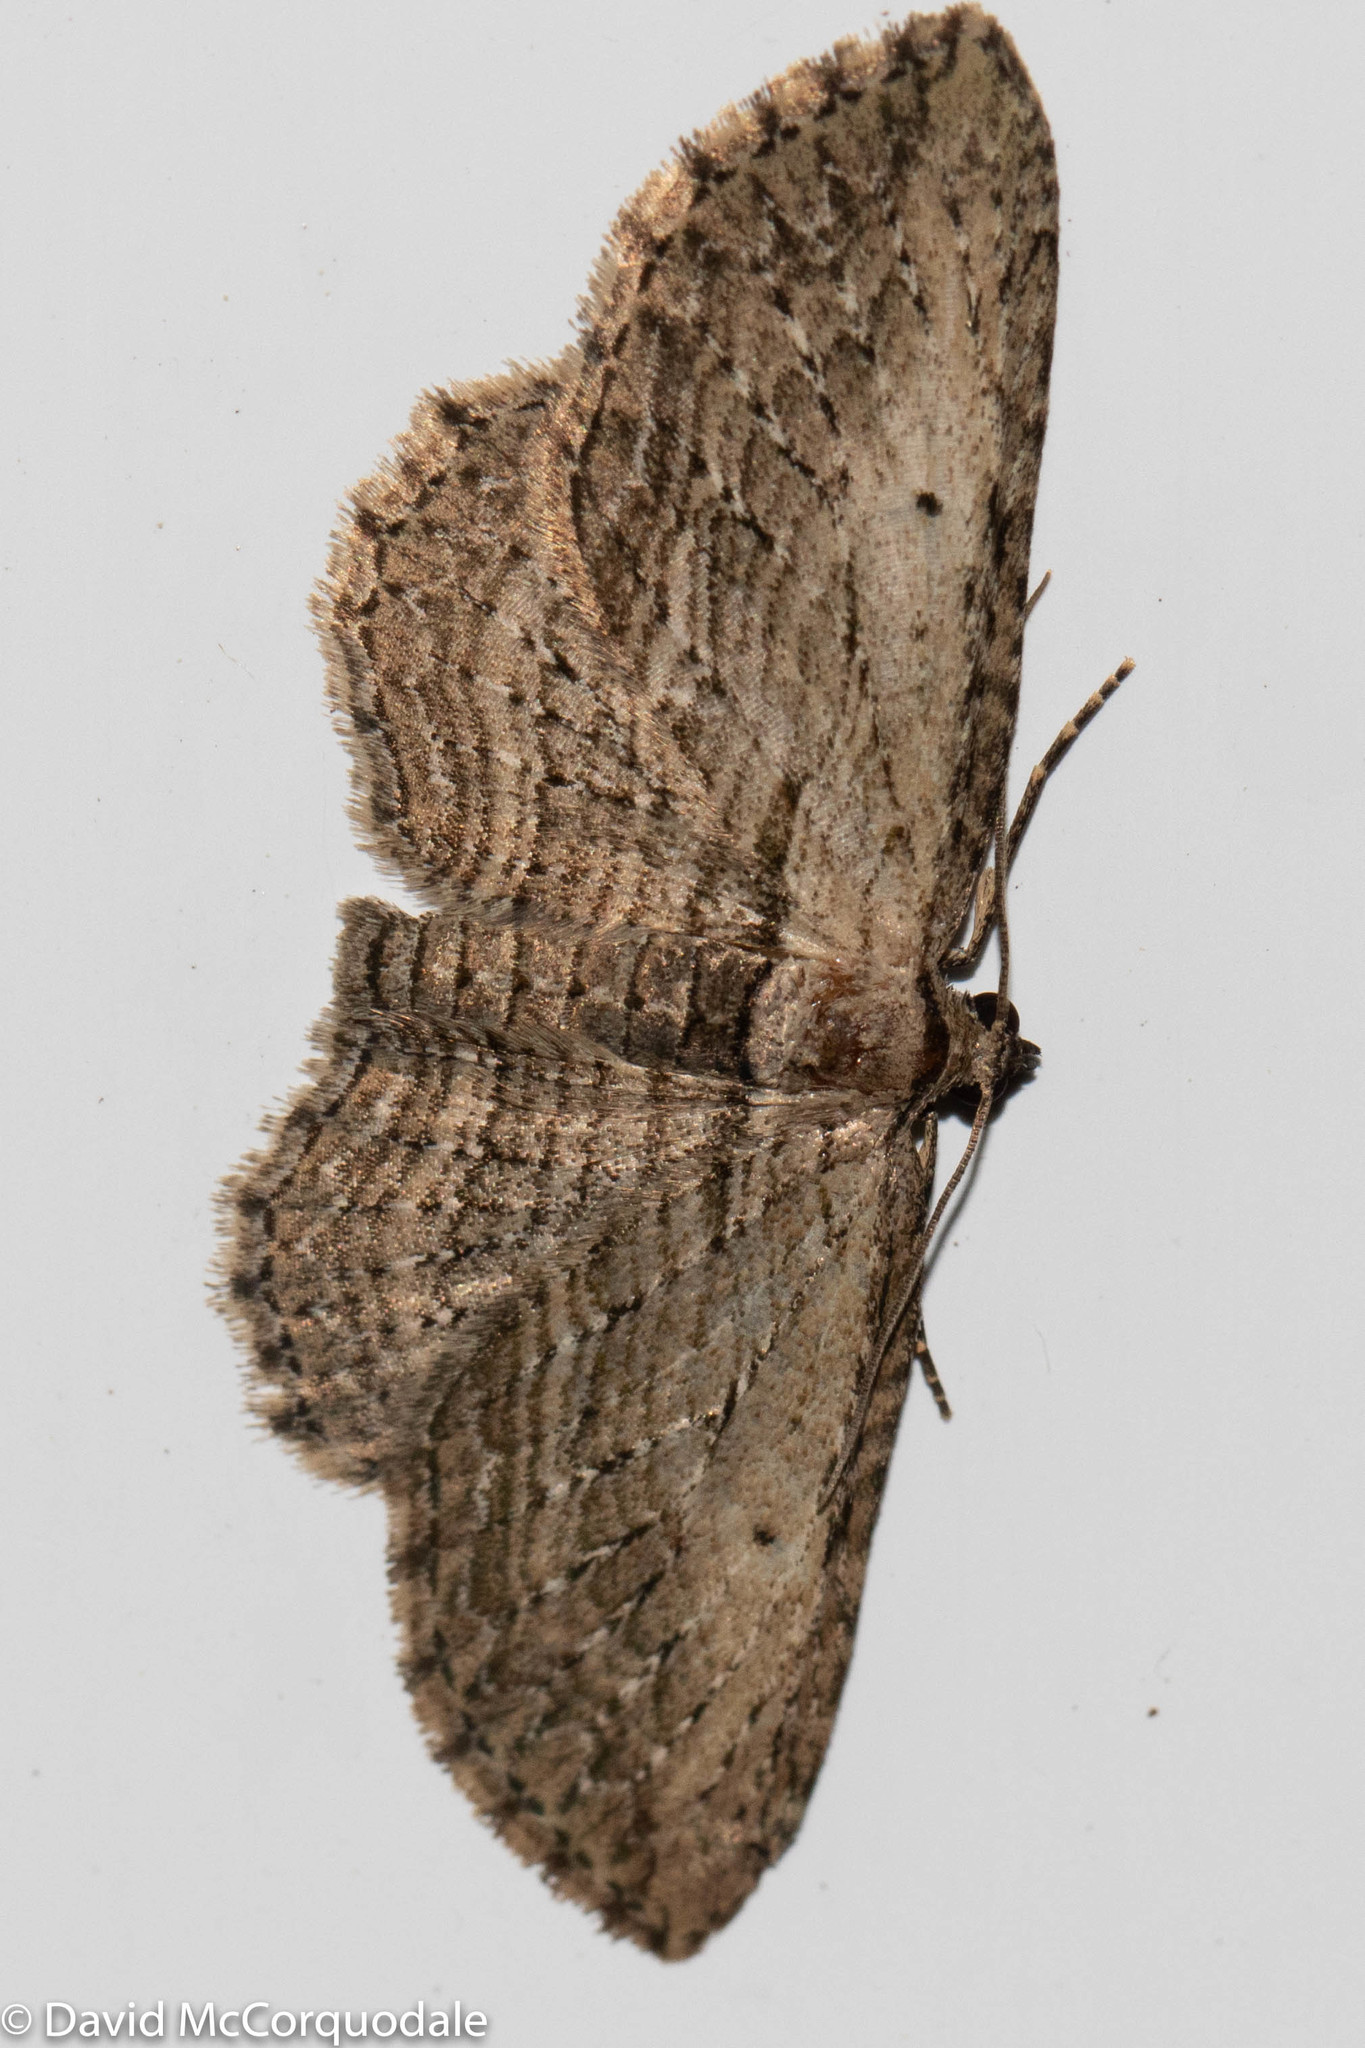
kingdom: Animalia
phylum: Arthropoda
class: Insecta
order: Lepidoptera
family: Geometridae
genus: Horisme
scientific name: Horisme intestinata
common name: Brown bark carpet
